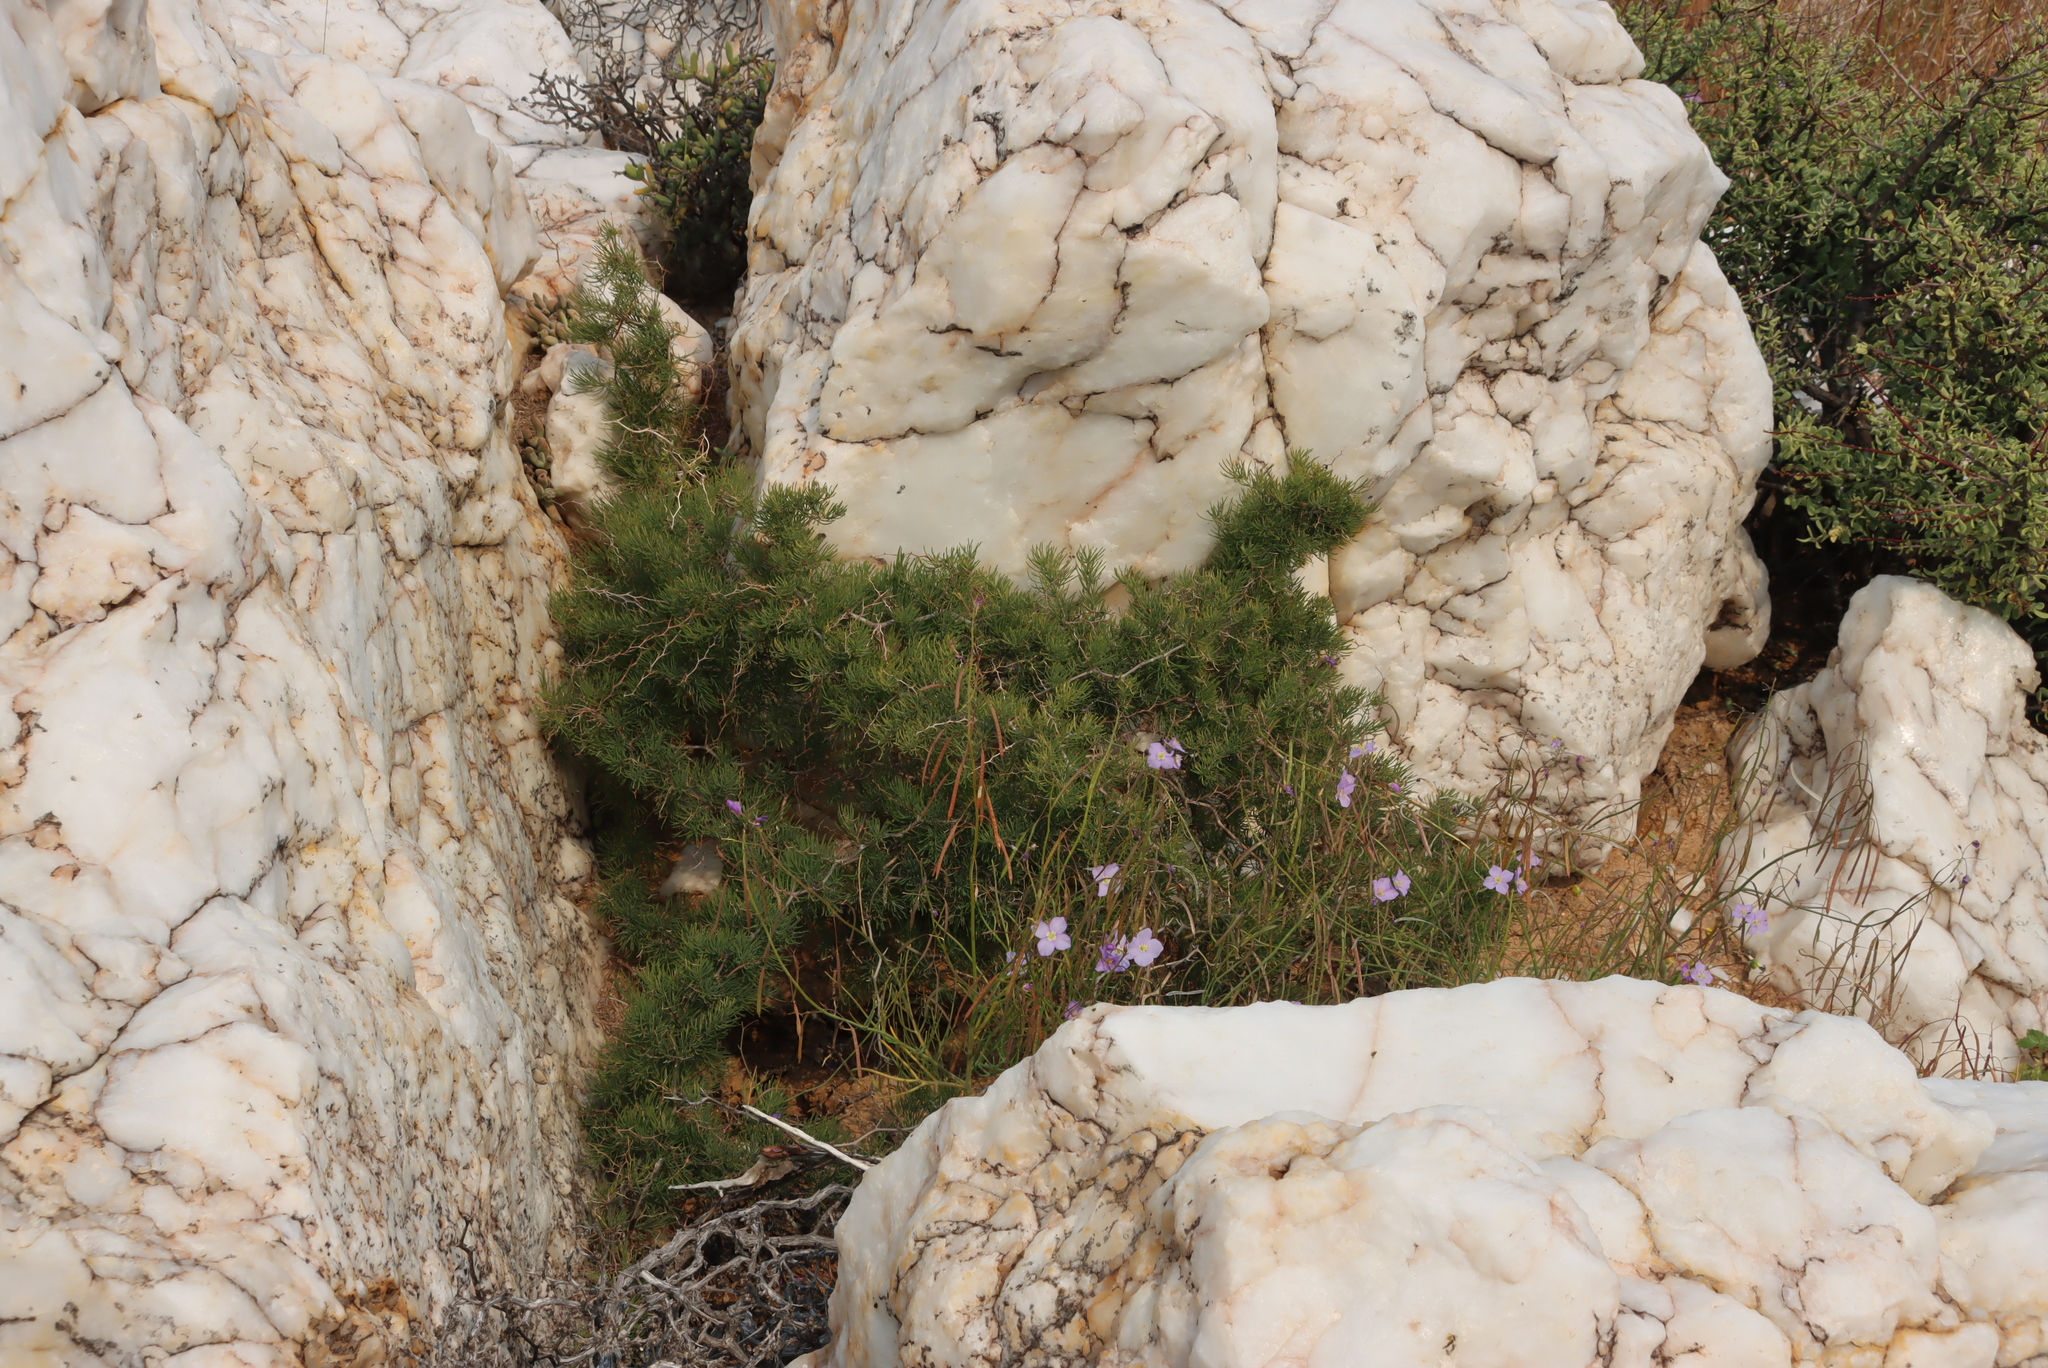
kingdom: Plantae
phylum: Tracheophyta
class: Magnoliopsida
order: Brassicales
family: Brassicaceae
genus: Heliophila
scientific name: Heliophila trifurca
